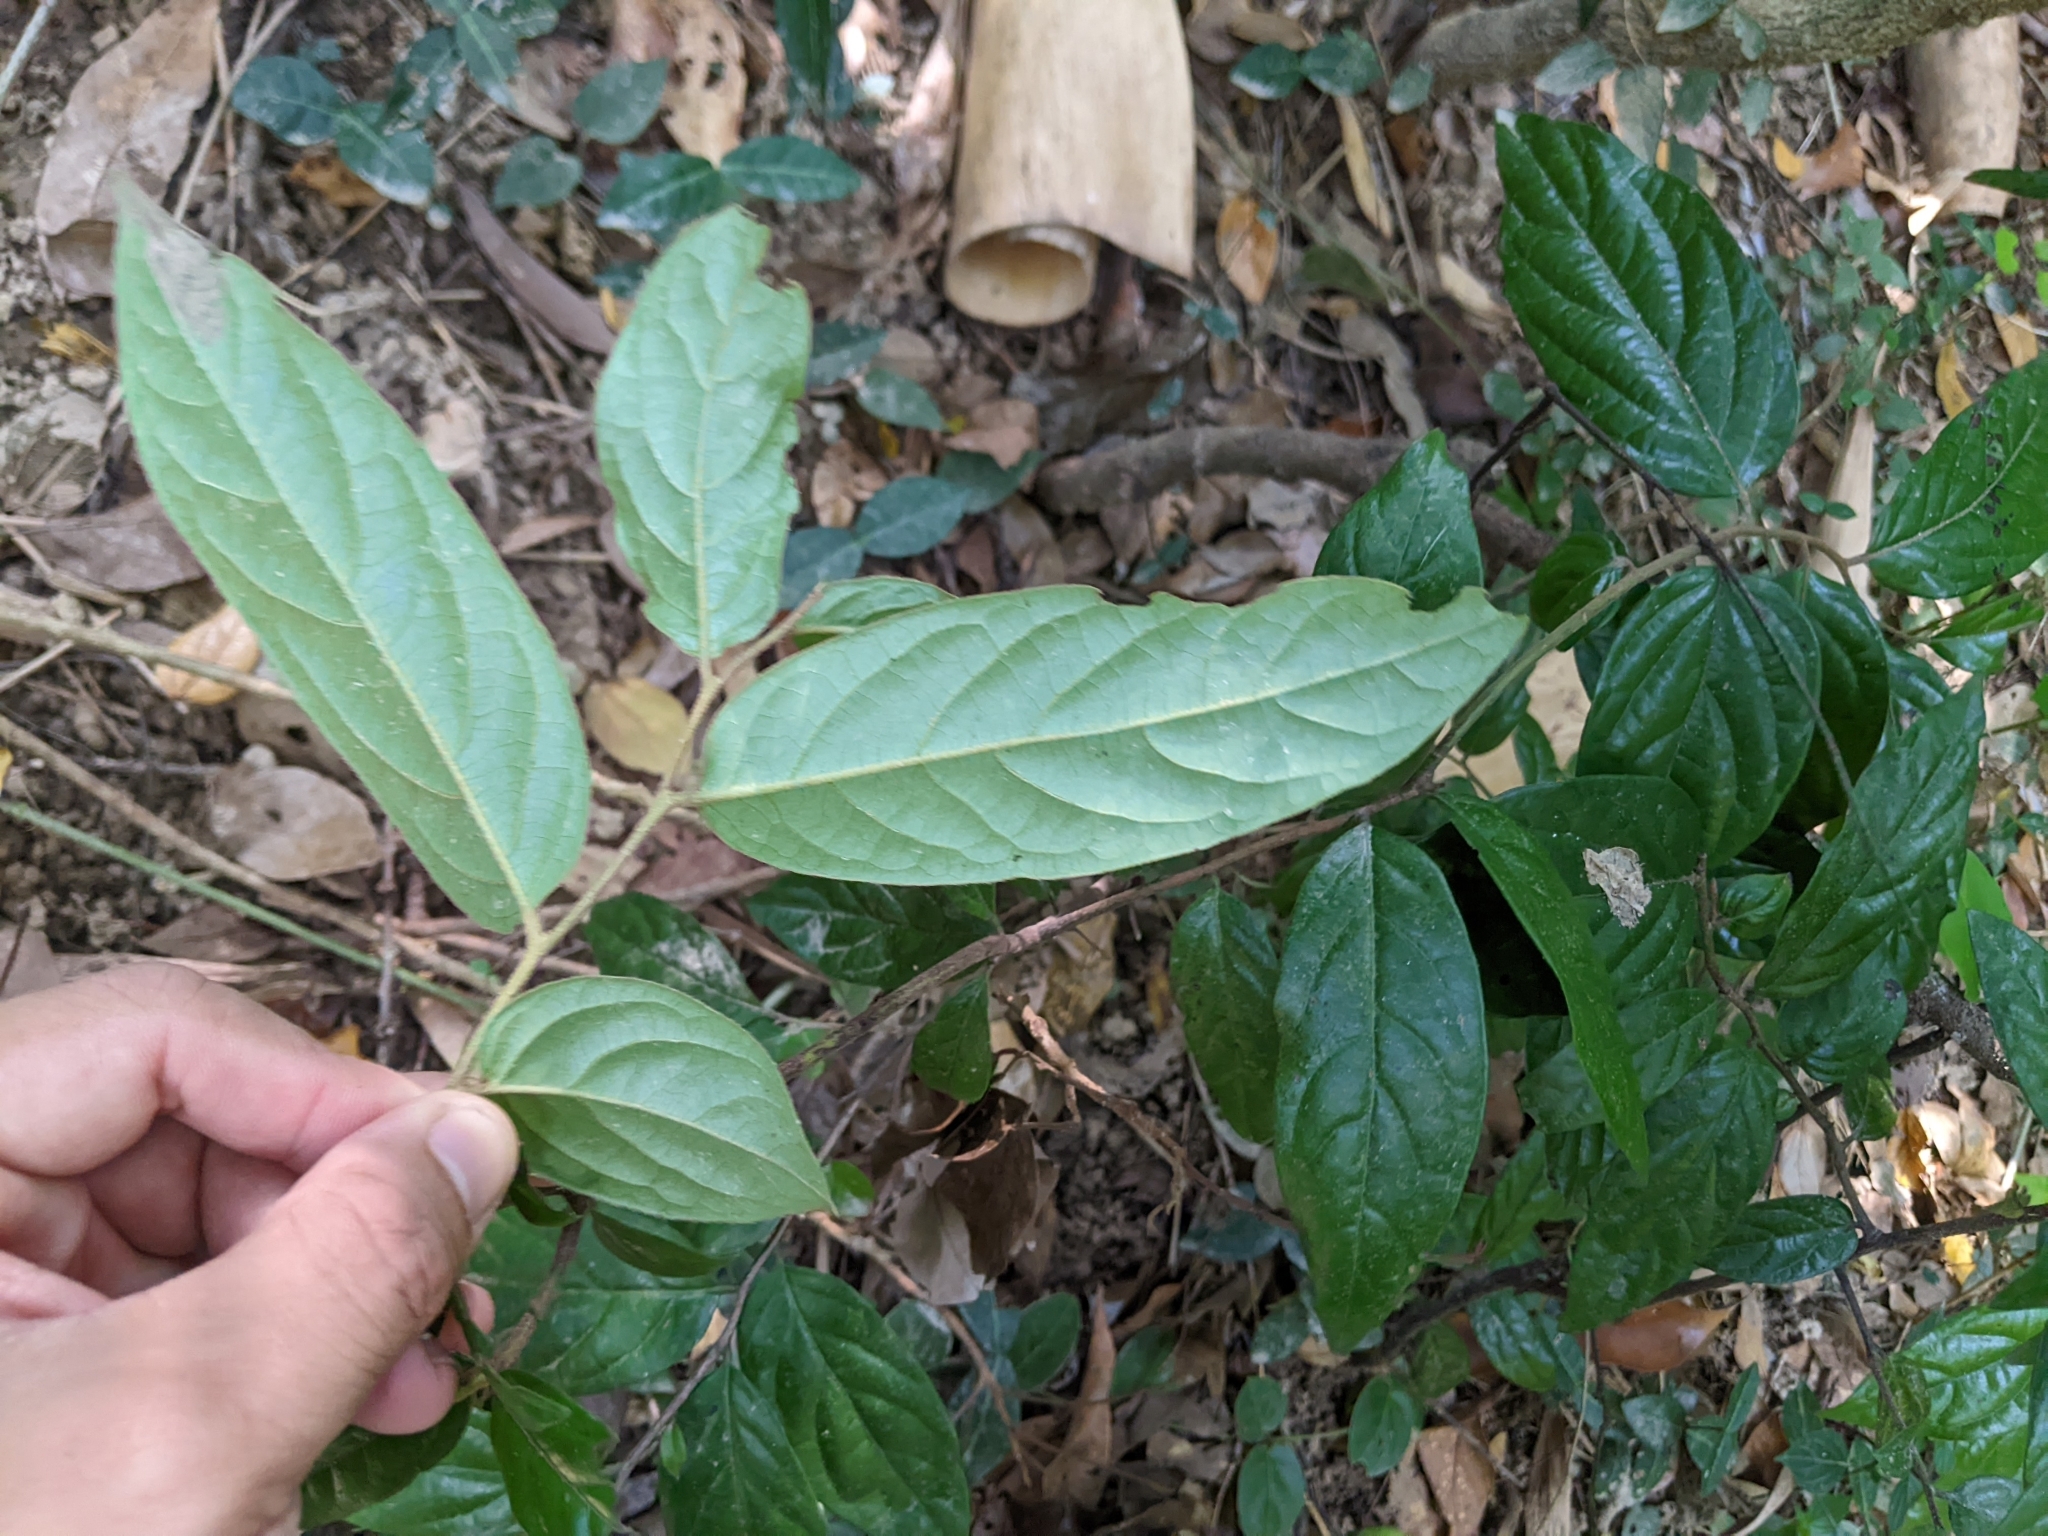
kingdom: Plantae
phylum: Tracheophyta
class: Magnoliopsida
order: Ericales
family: Ebenaceae
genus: Diospyros
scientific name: Diospyros eriantha
